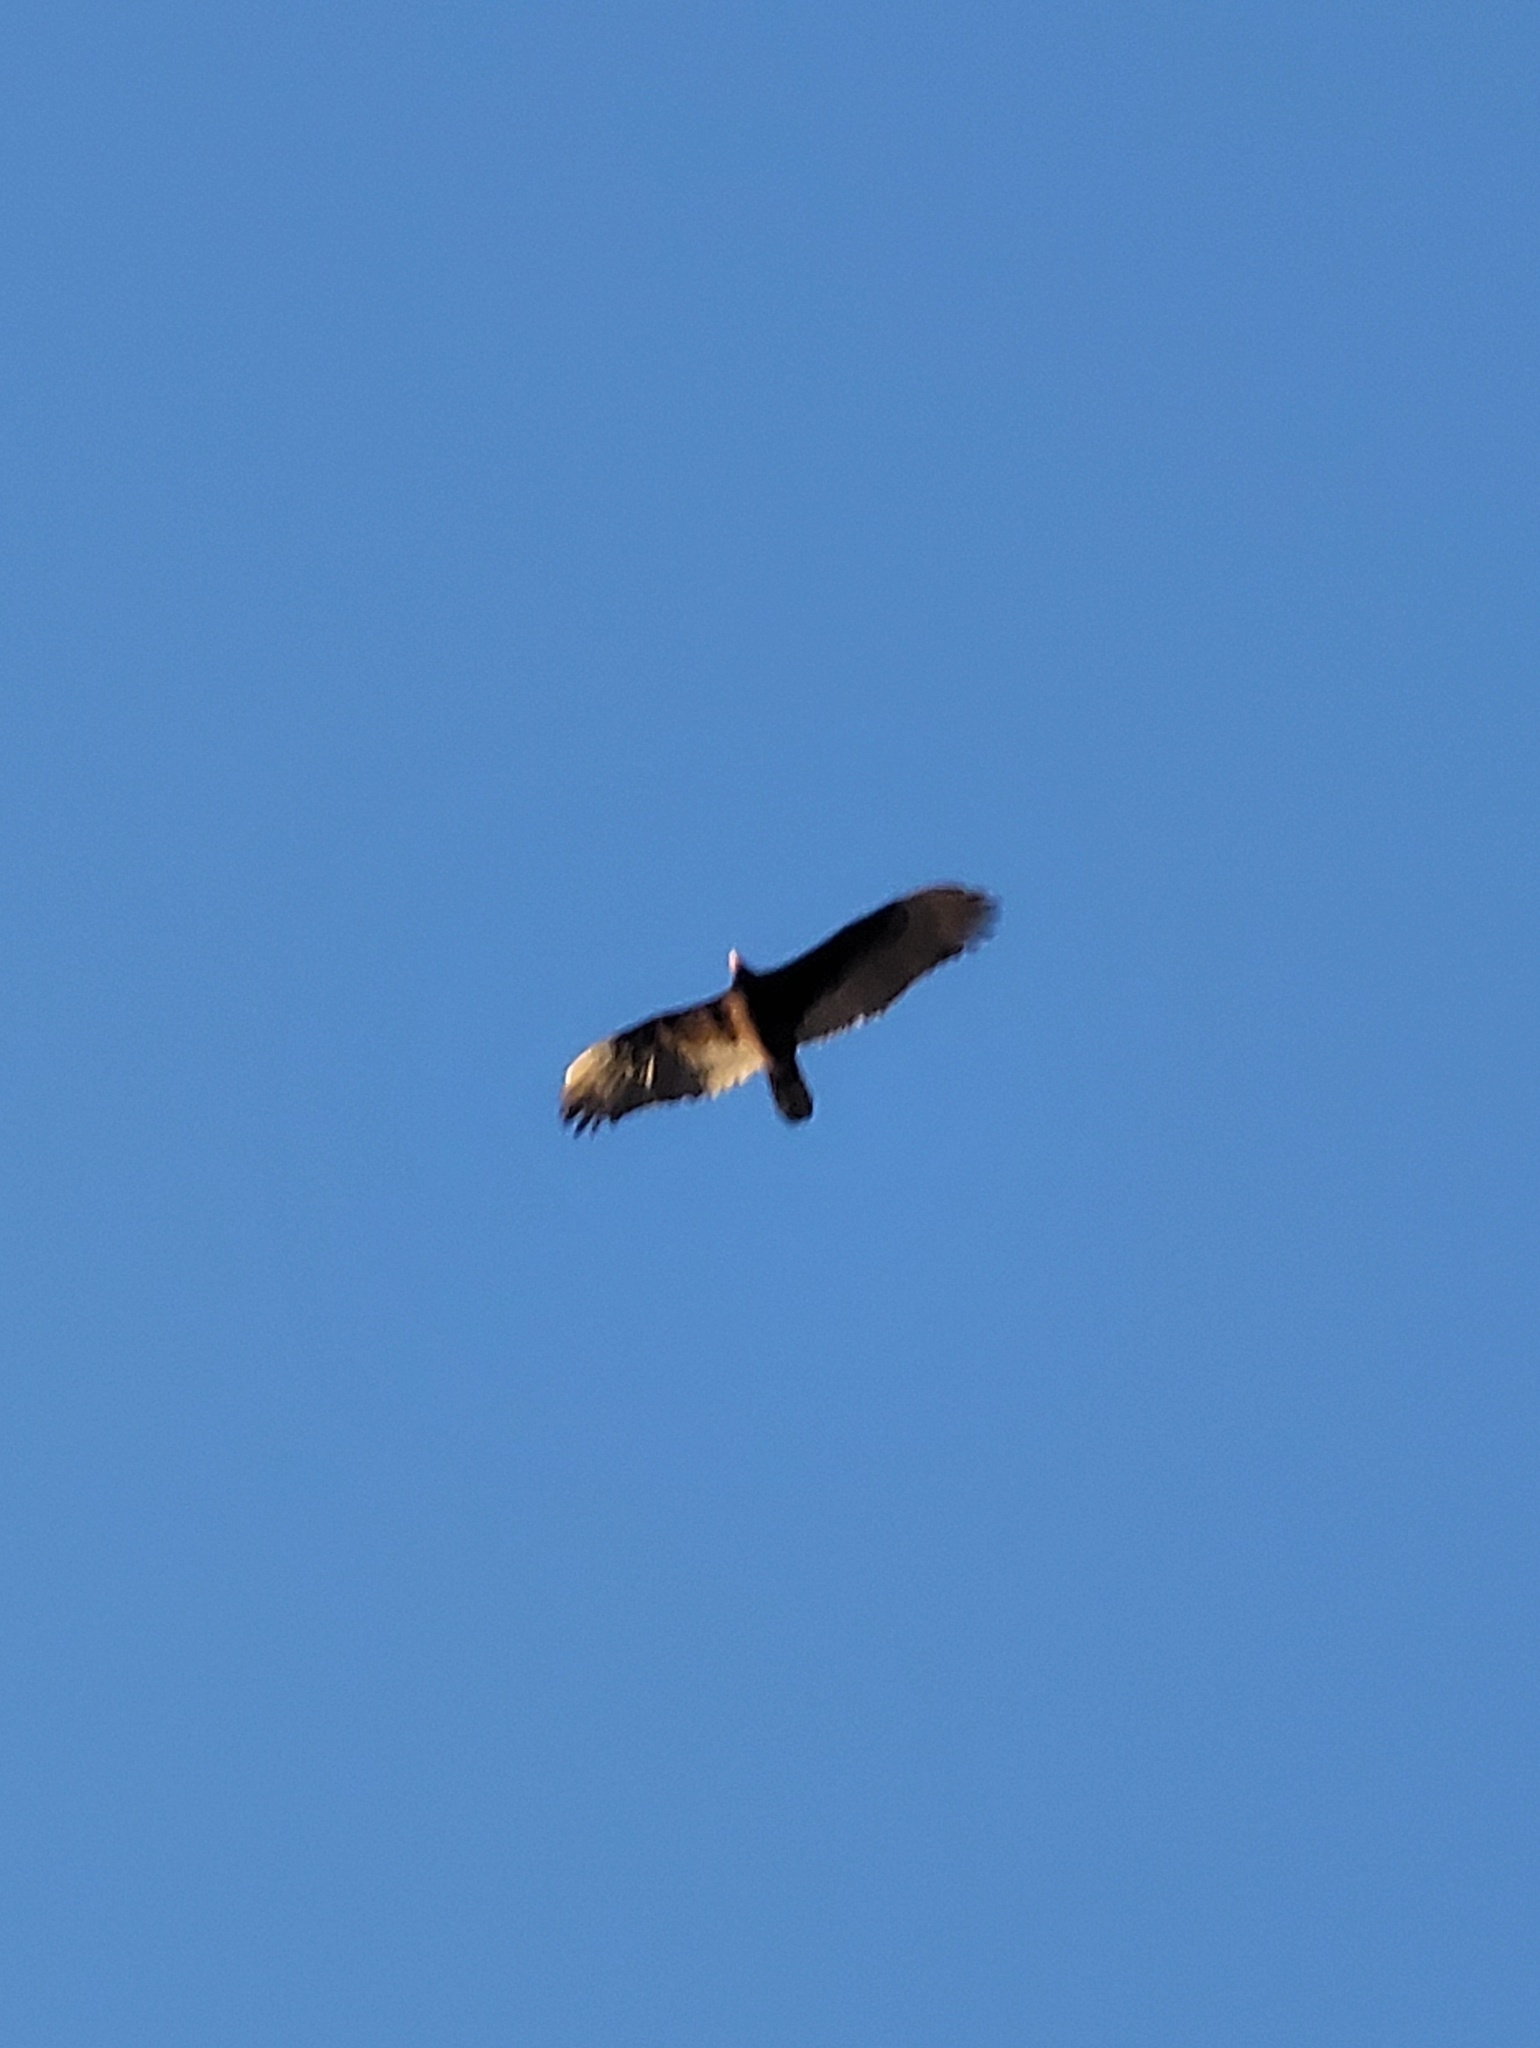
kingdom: Animalia
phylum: Chordata
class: Aves
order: Accipitriformes
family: Cathartidae
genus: Cathartes
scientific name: Cathartes aura
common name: Turkey vulture
